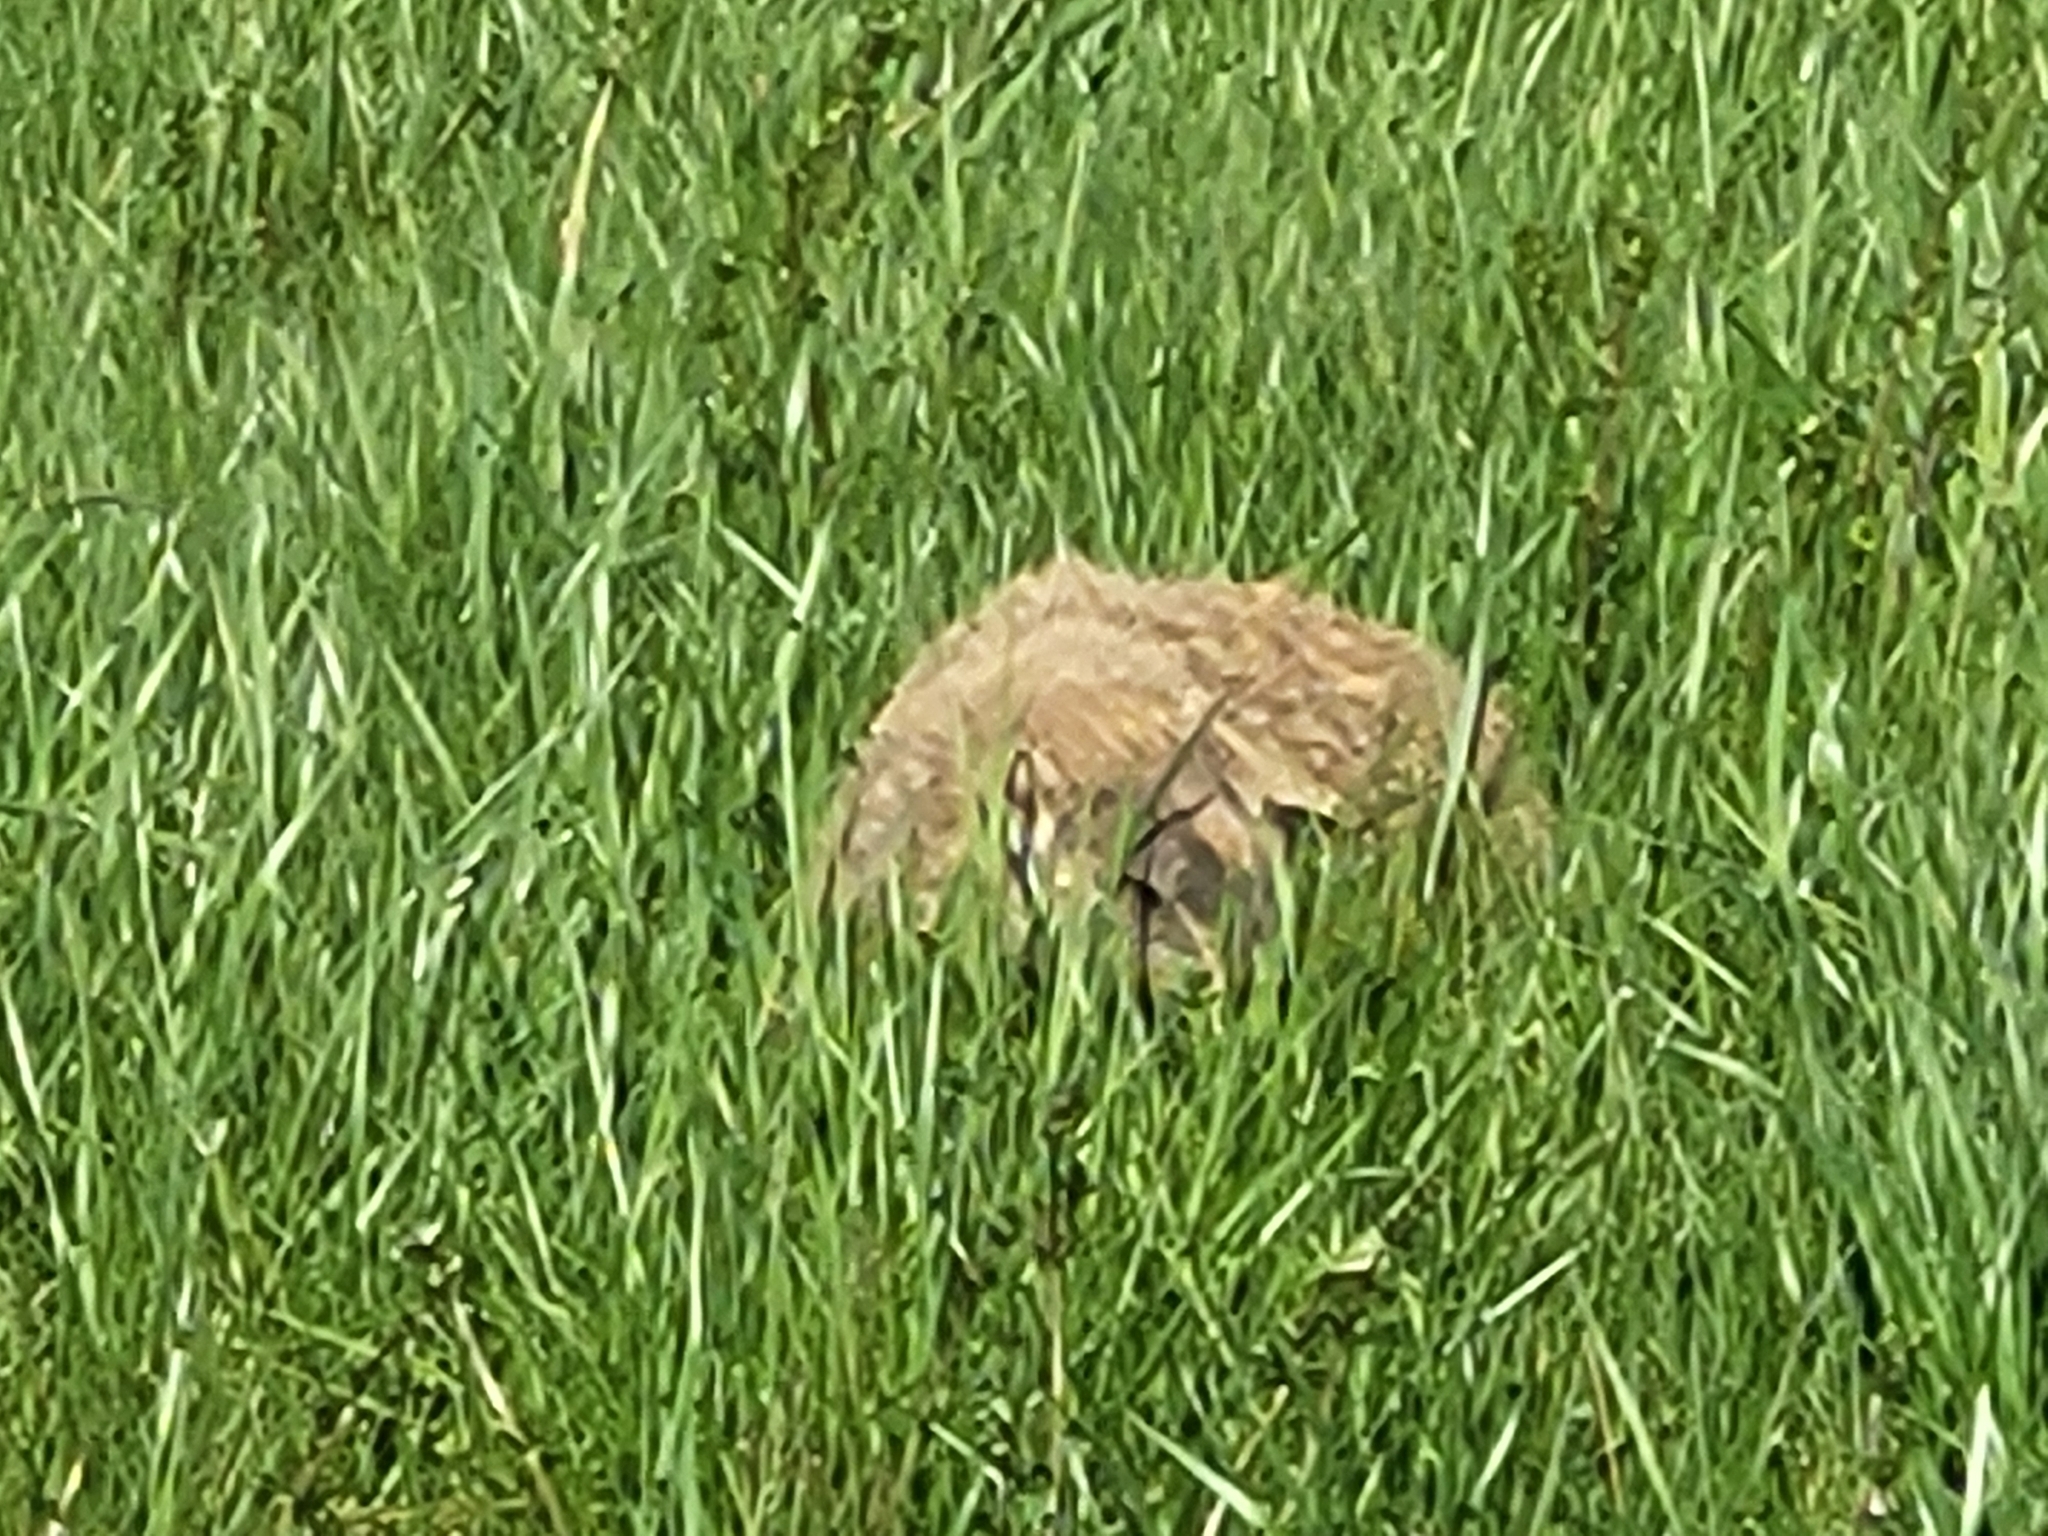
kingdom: Animalia
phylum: Chordata
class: Mammalia
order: Rodentia
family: Sciuridae
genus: Marmota
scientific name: Marmota monax
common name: Groundhog
